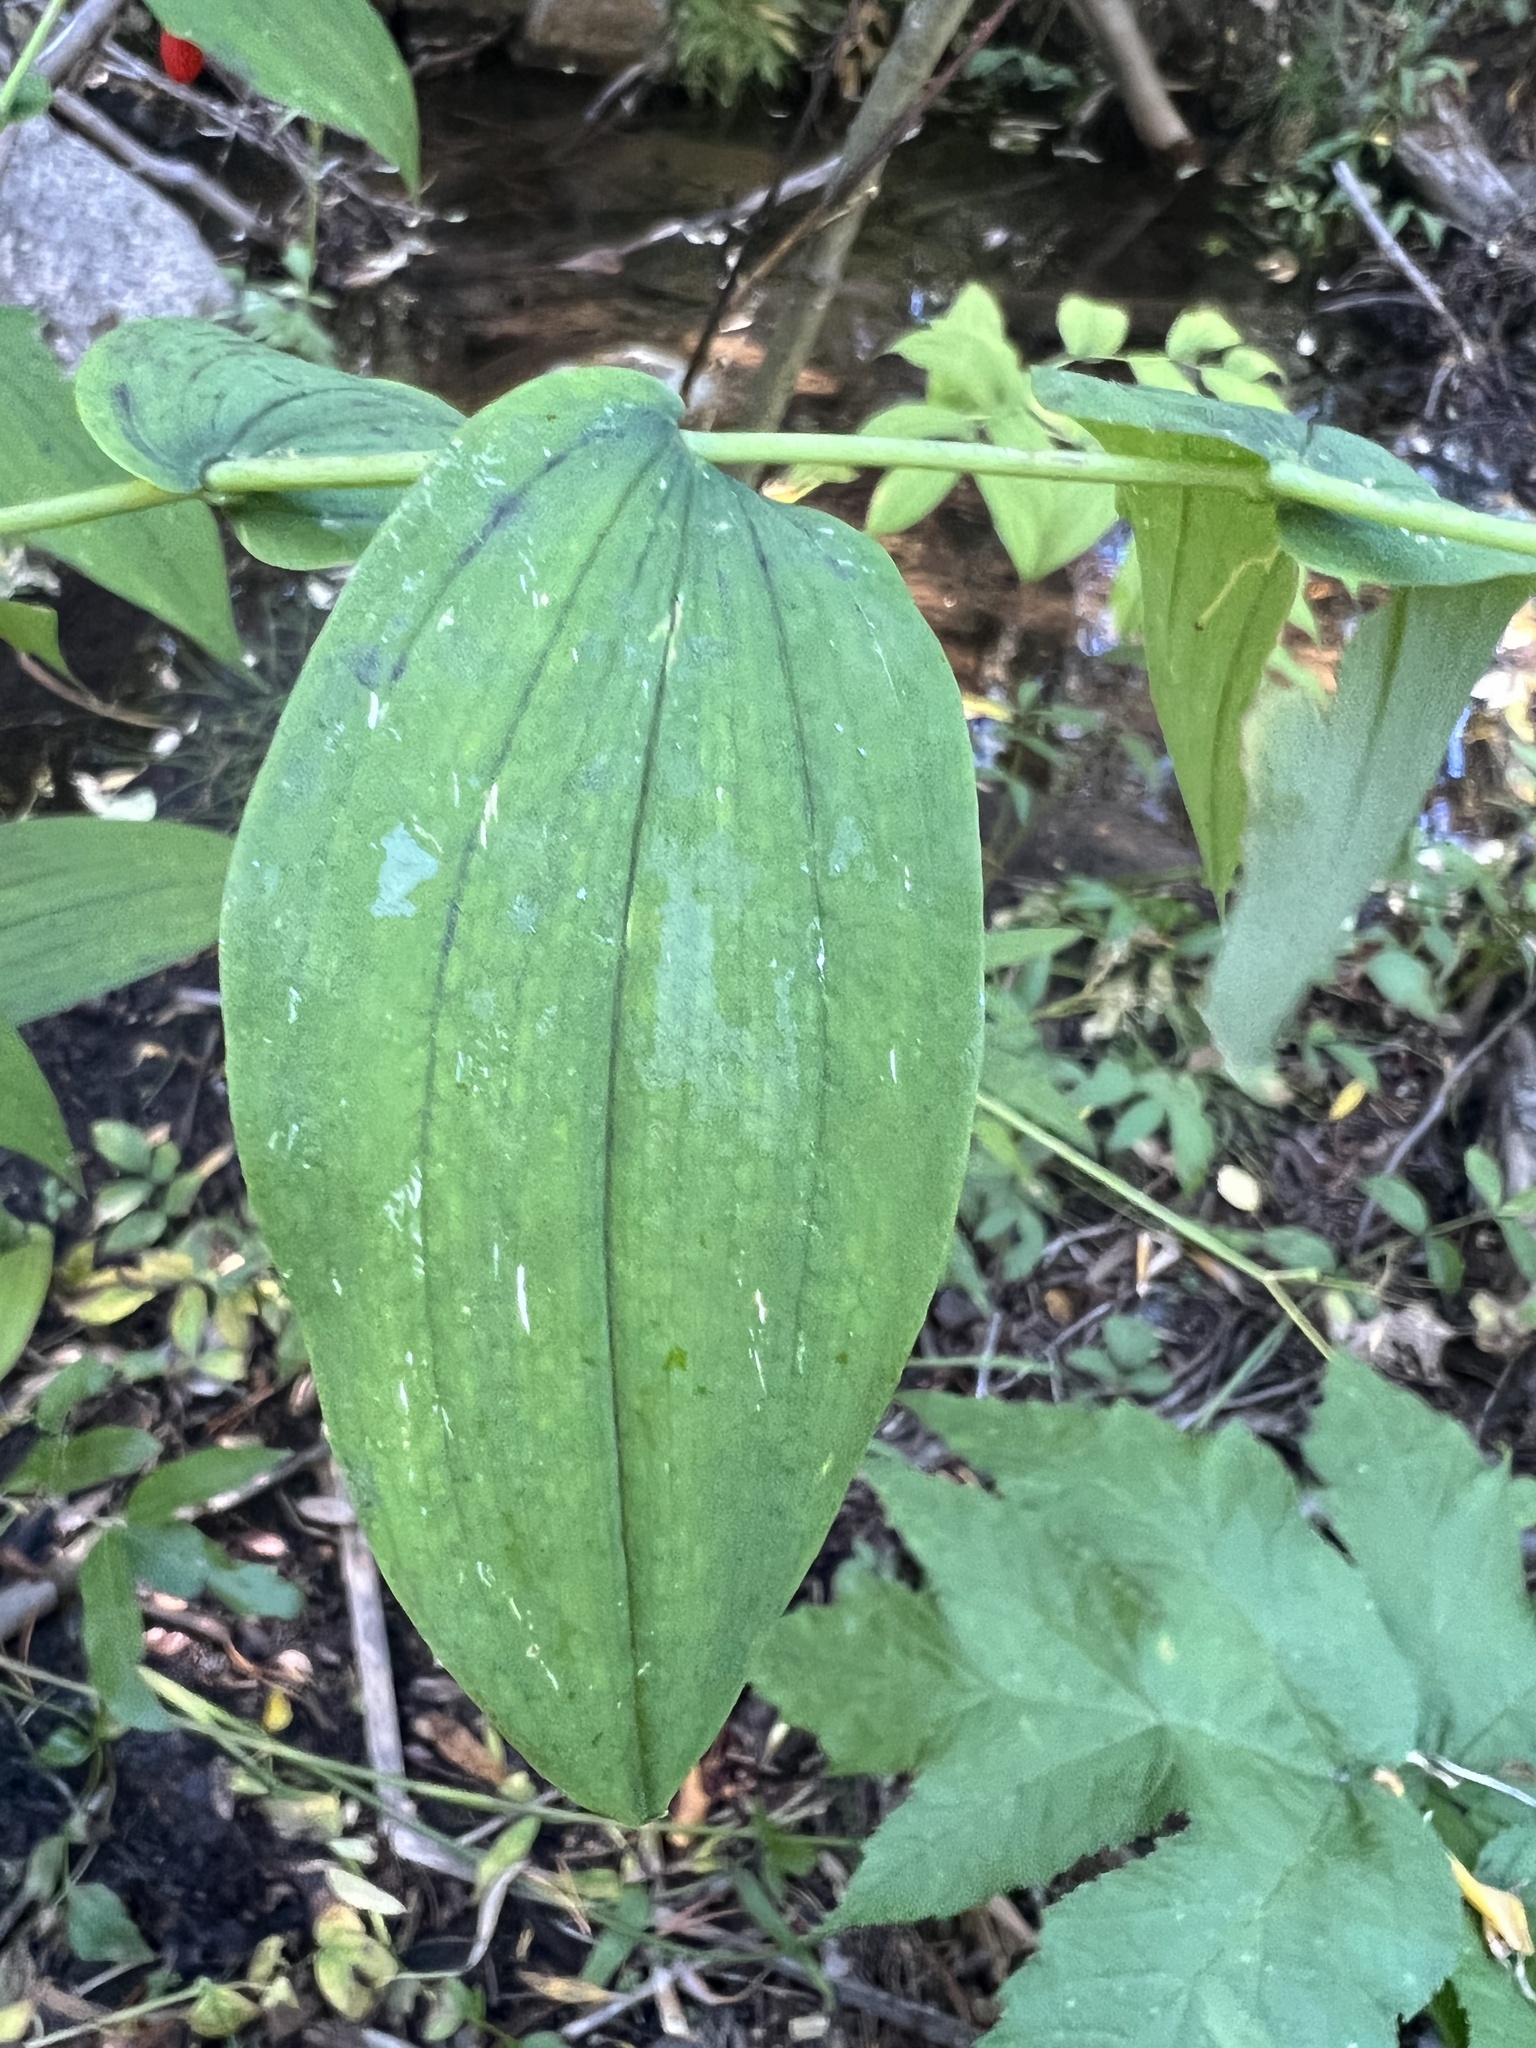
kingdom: Plantae
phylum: Tracheophyta
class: Liliopsida
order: Liliales
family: Liliaceae
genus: Streptopus
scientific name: Streptopus amplexifolius
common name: Clasp twisted stalk
